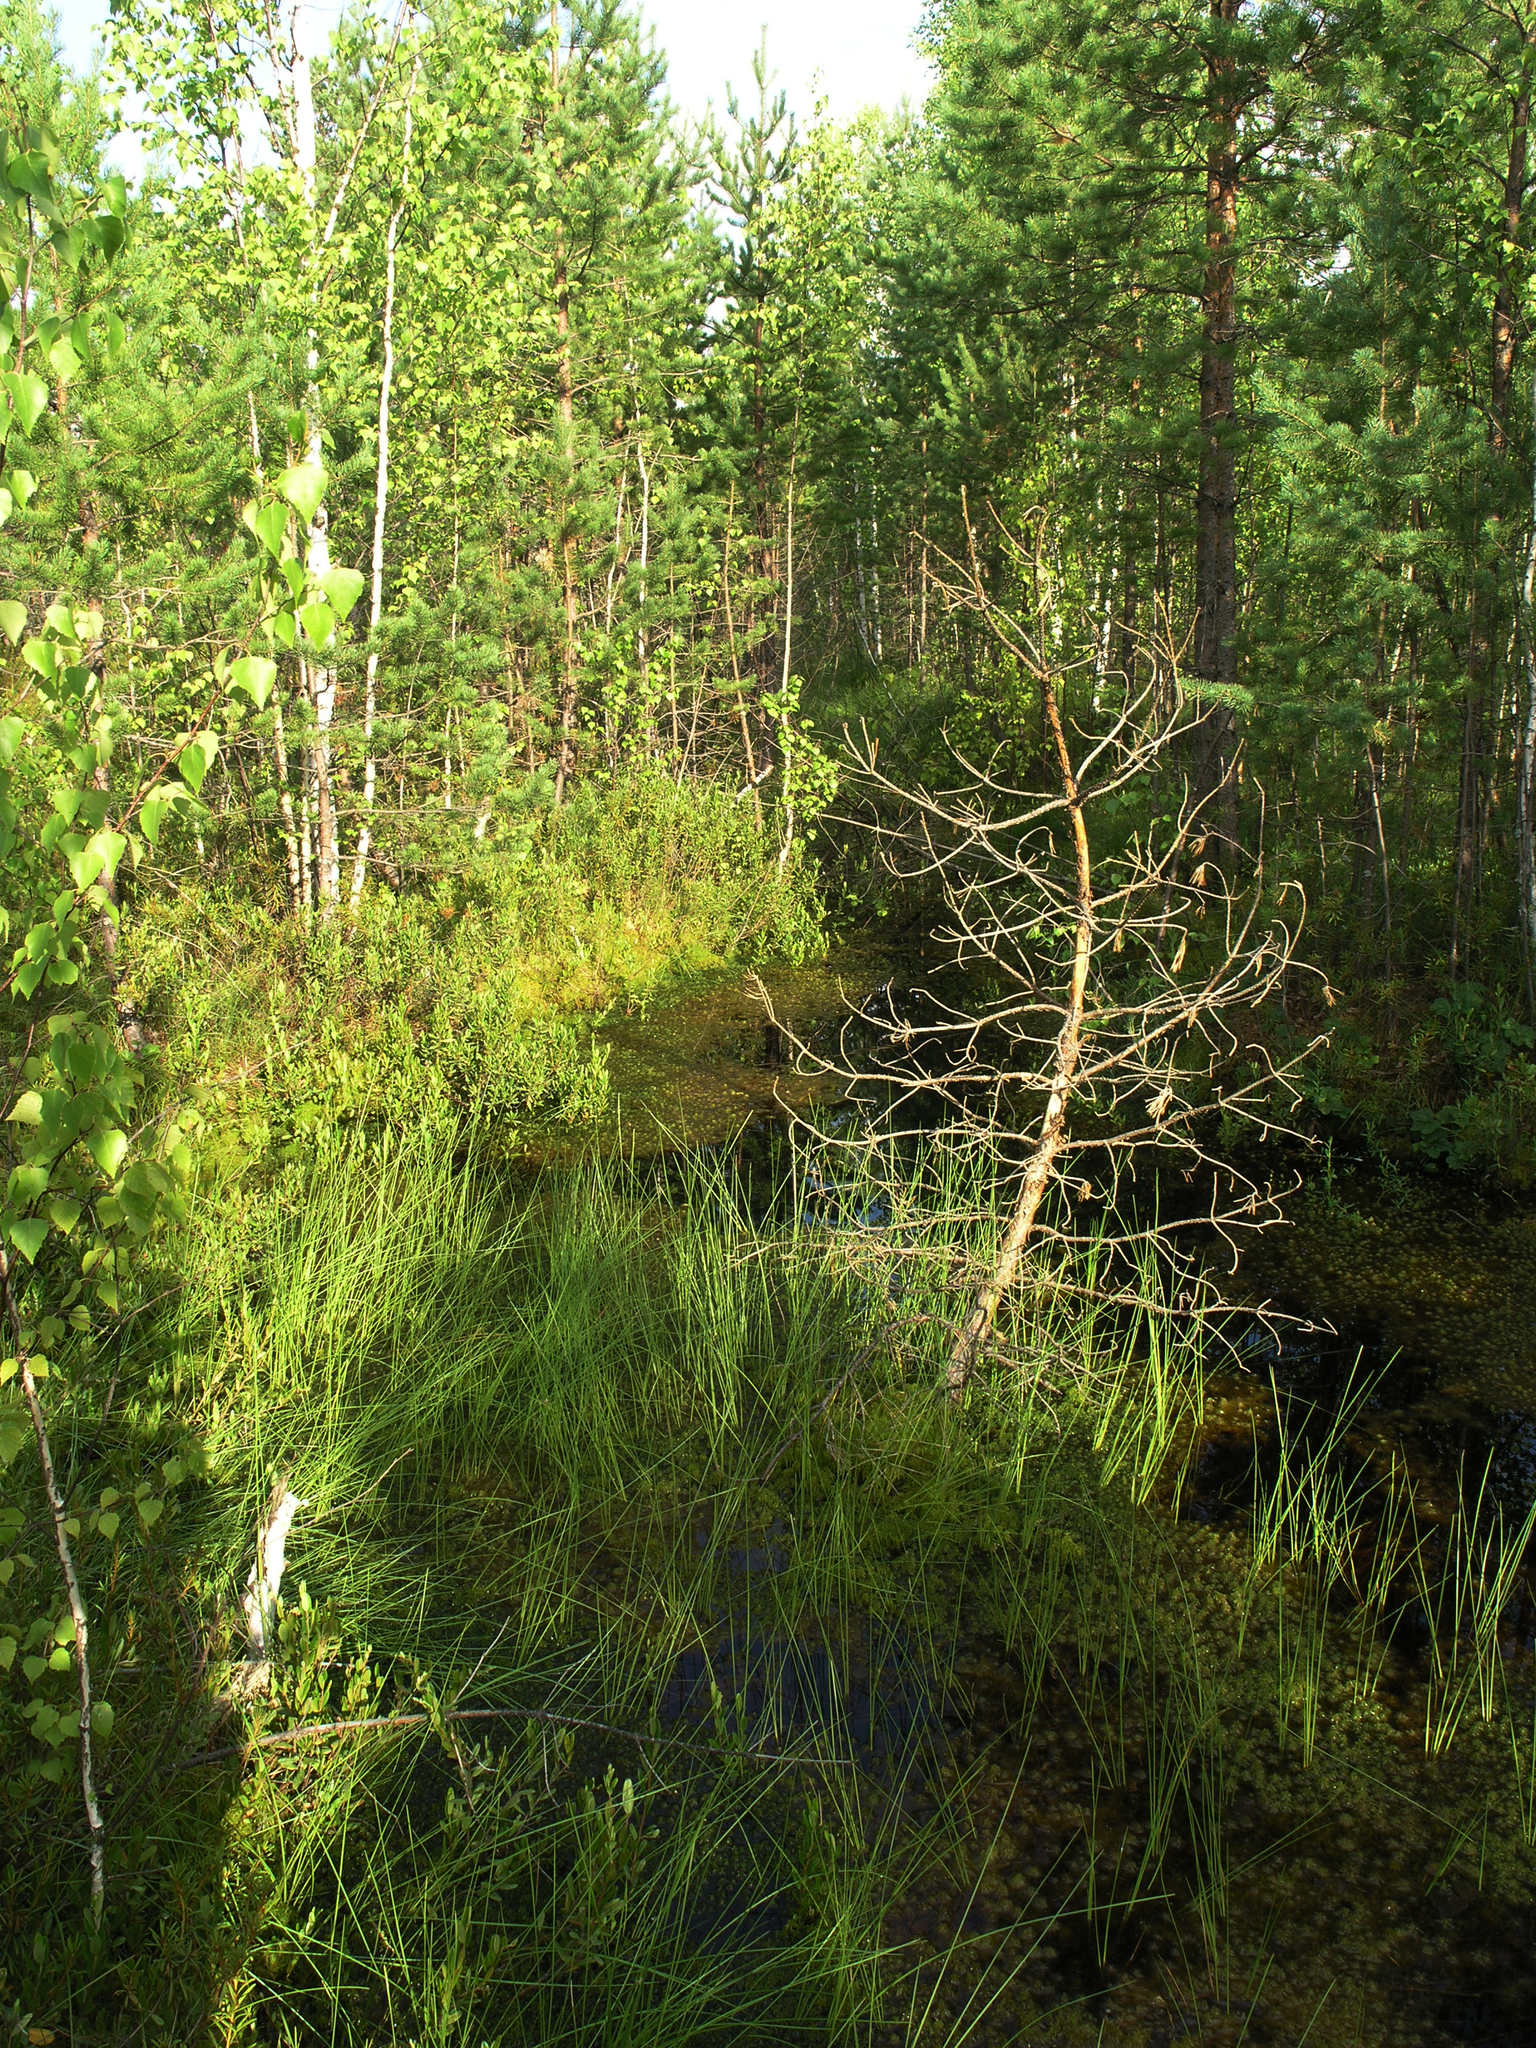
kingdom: Plantae
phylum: Tracheophyta
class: Pinopsida
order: Pinales
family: Pinaceae
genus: Pinus
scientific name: Pinus sylvestris
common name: Scots pine
